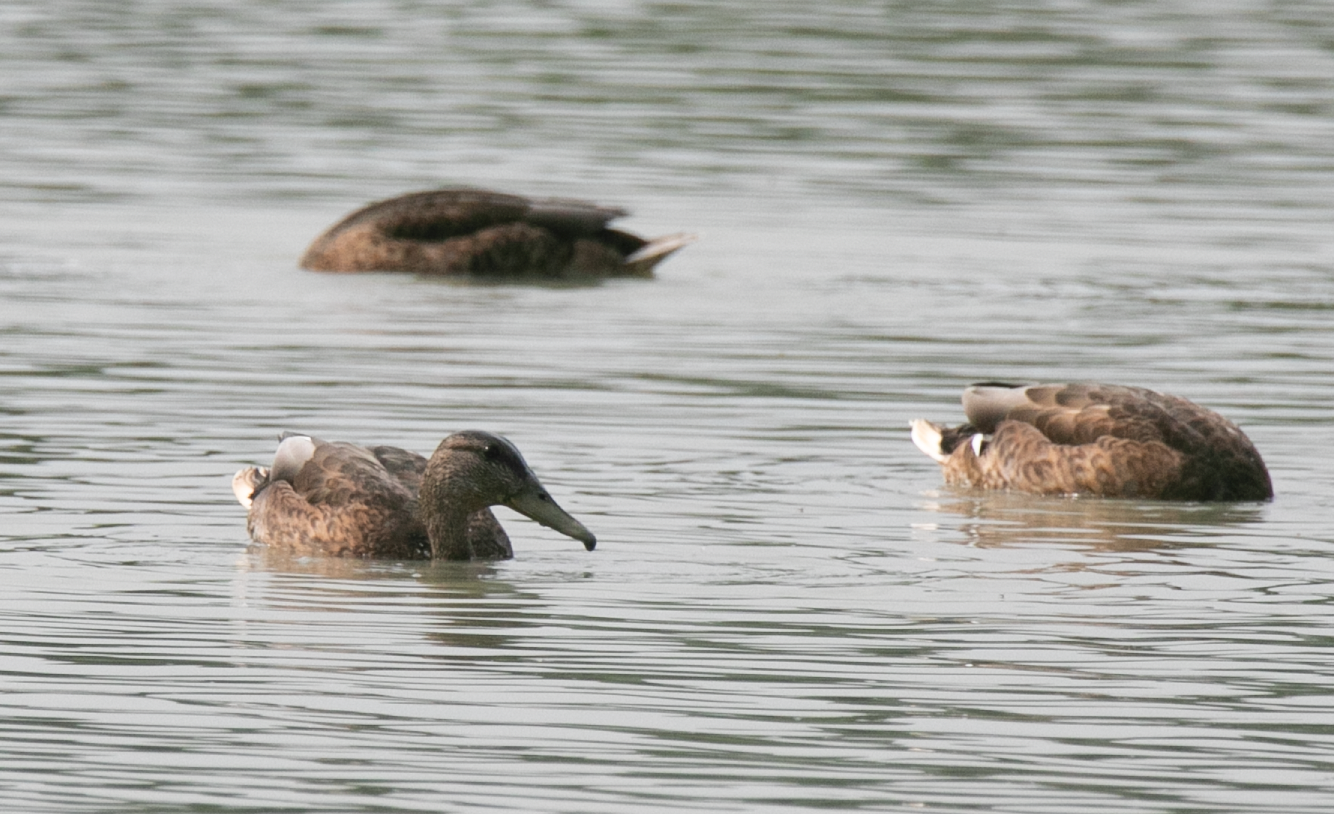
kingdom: Animalia
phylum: Chordata
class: Aves
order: Anseriformes
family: Anatidae
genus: Spatula
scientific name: Spatula clypeata
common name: Northern shoveler
